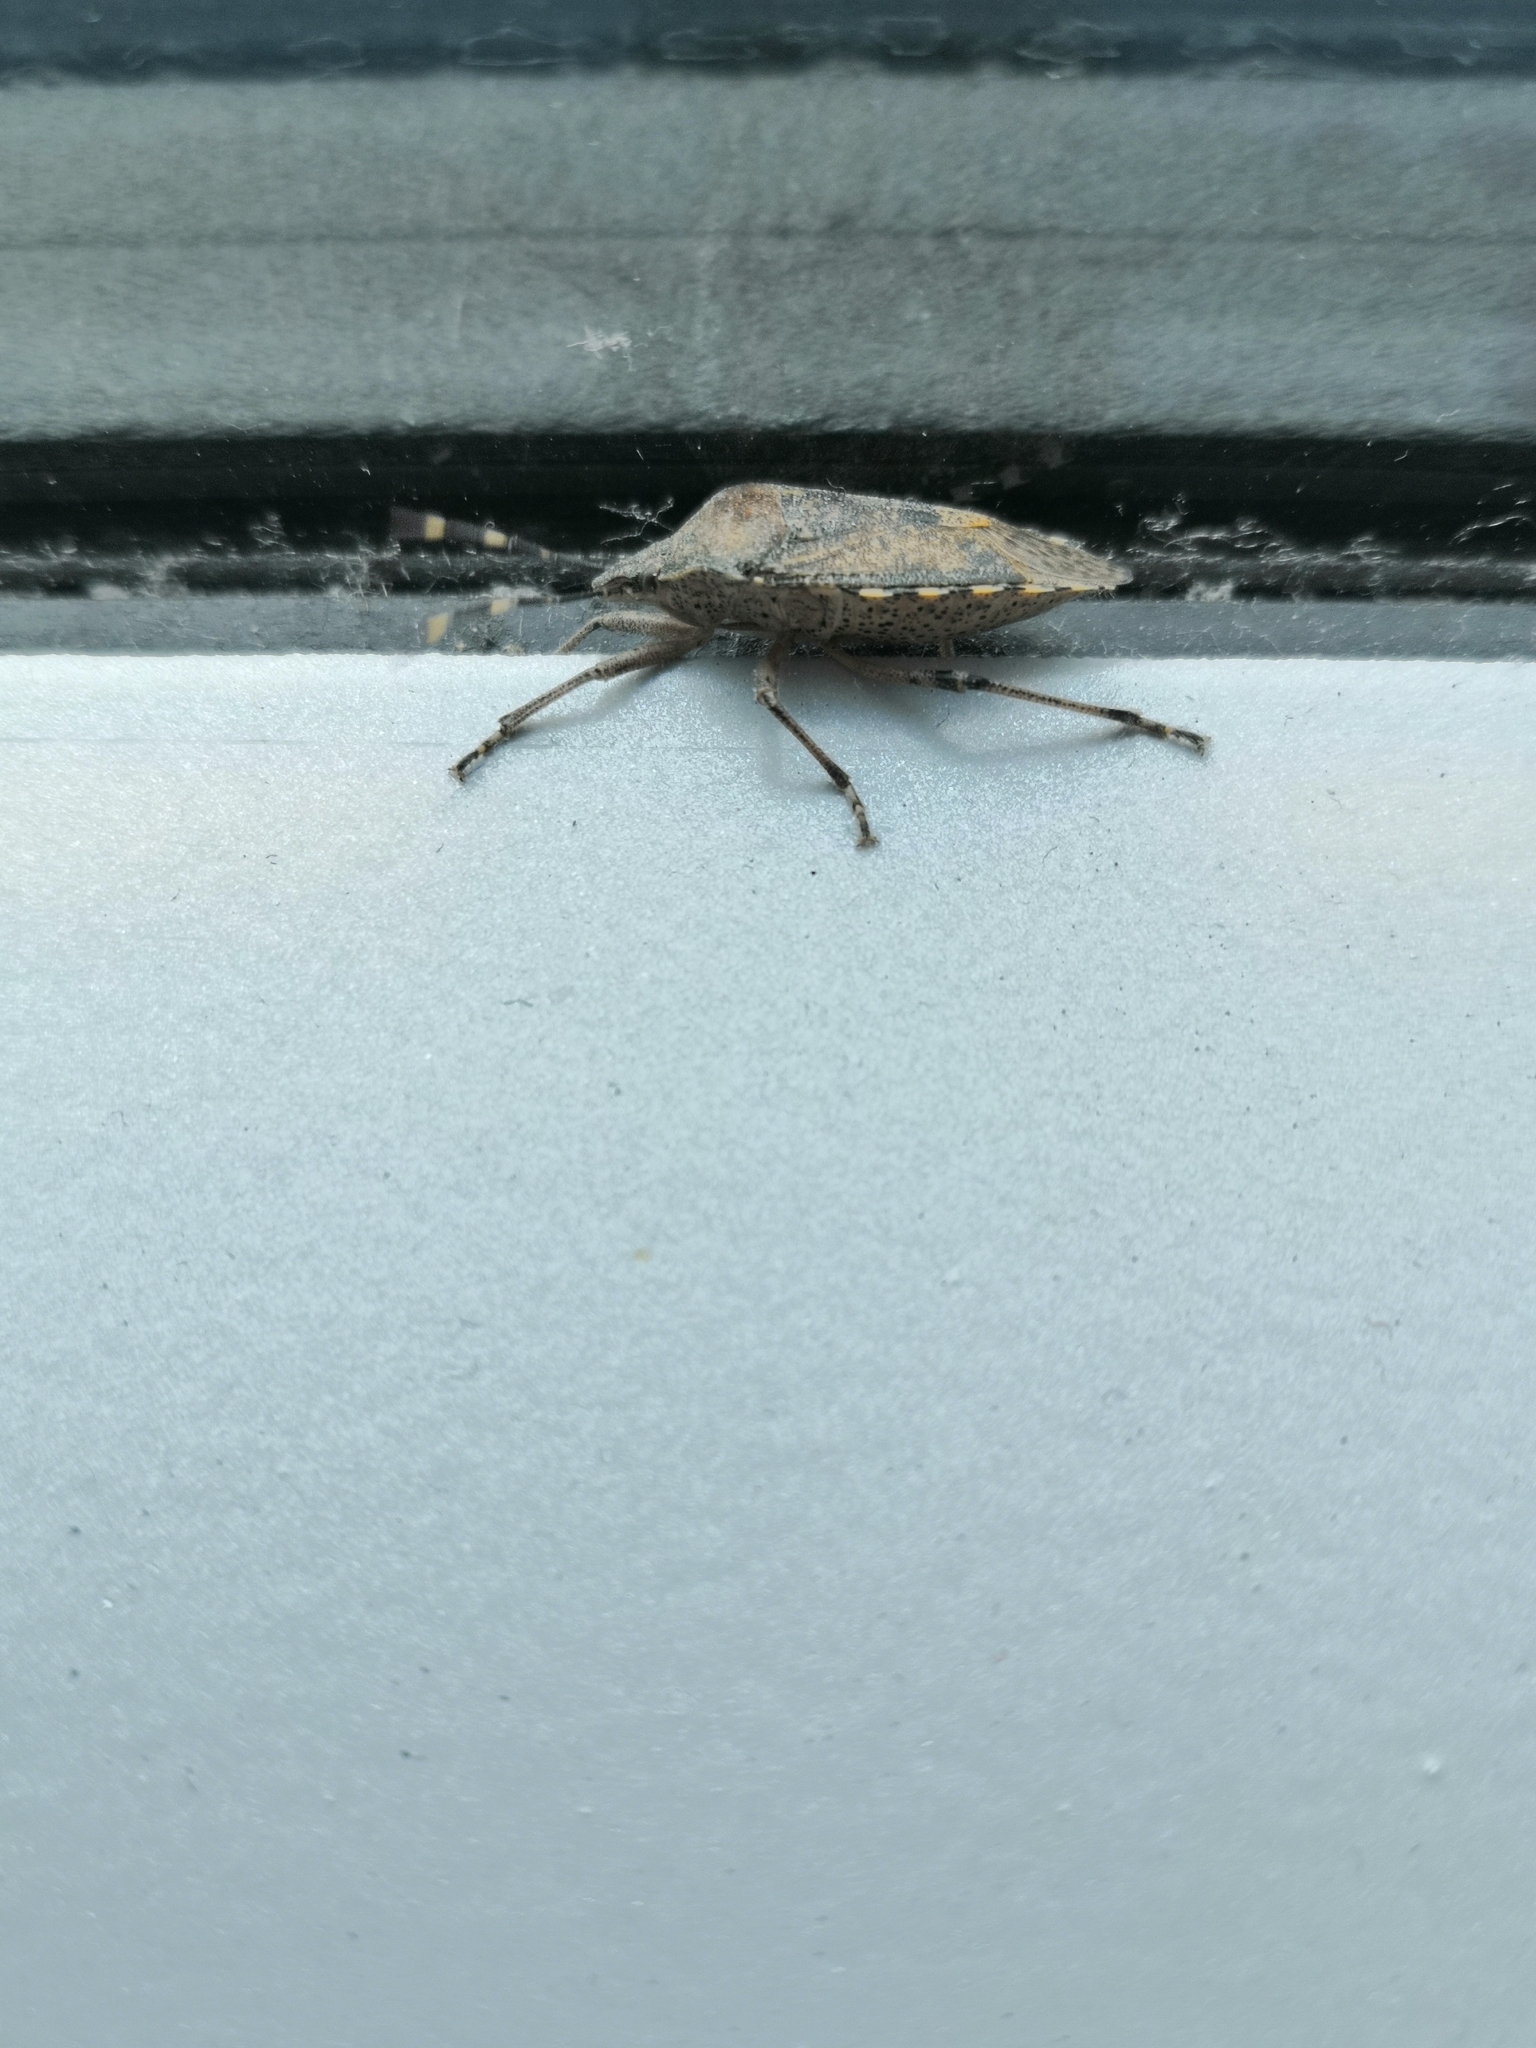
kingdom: Animalia
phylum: Arthropoda
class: Insecta
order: Hemiptera
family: Pentatomidae
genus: Rhaphigaster
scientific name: Rhaphigaster nebulosa
